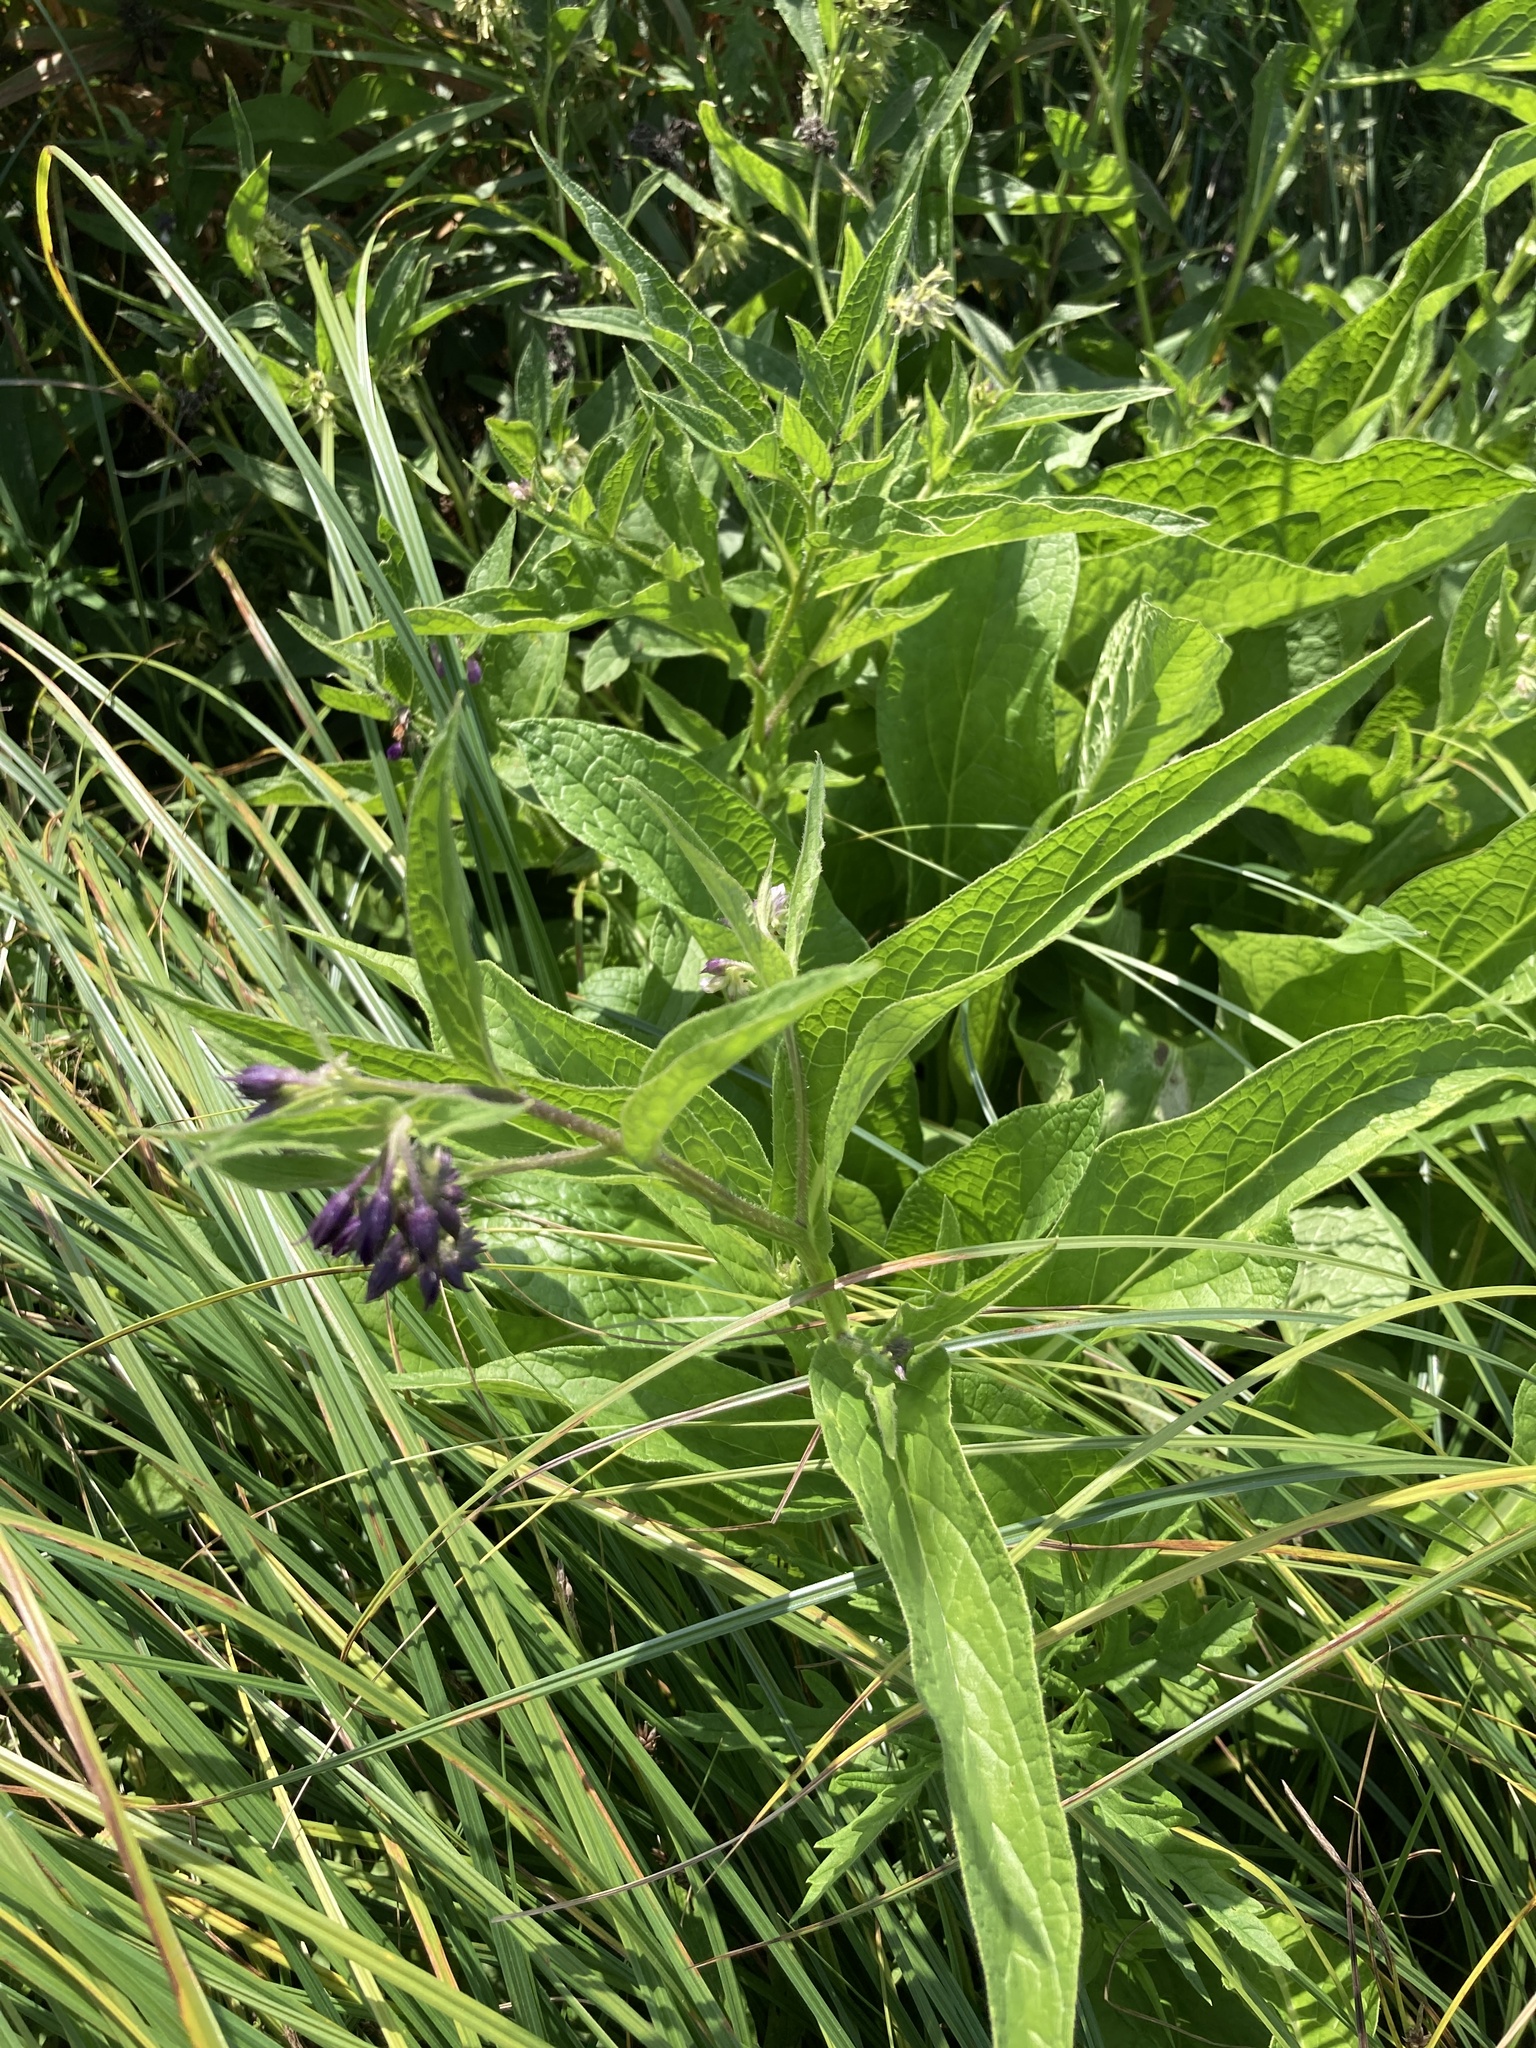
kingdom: Plantae
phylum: Tracheophyta
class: Magnoliopsida
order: Boraginales
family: Boraginaceae
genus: Symphytum
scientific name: Symphytum officinale
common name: Common comfrey
